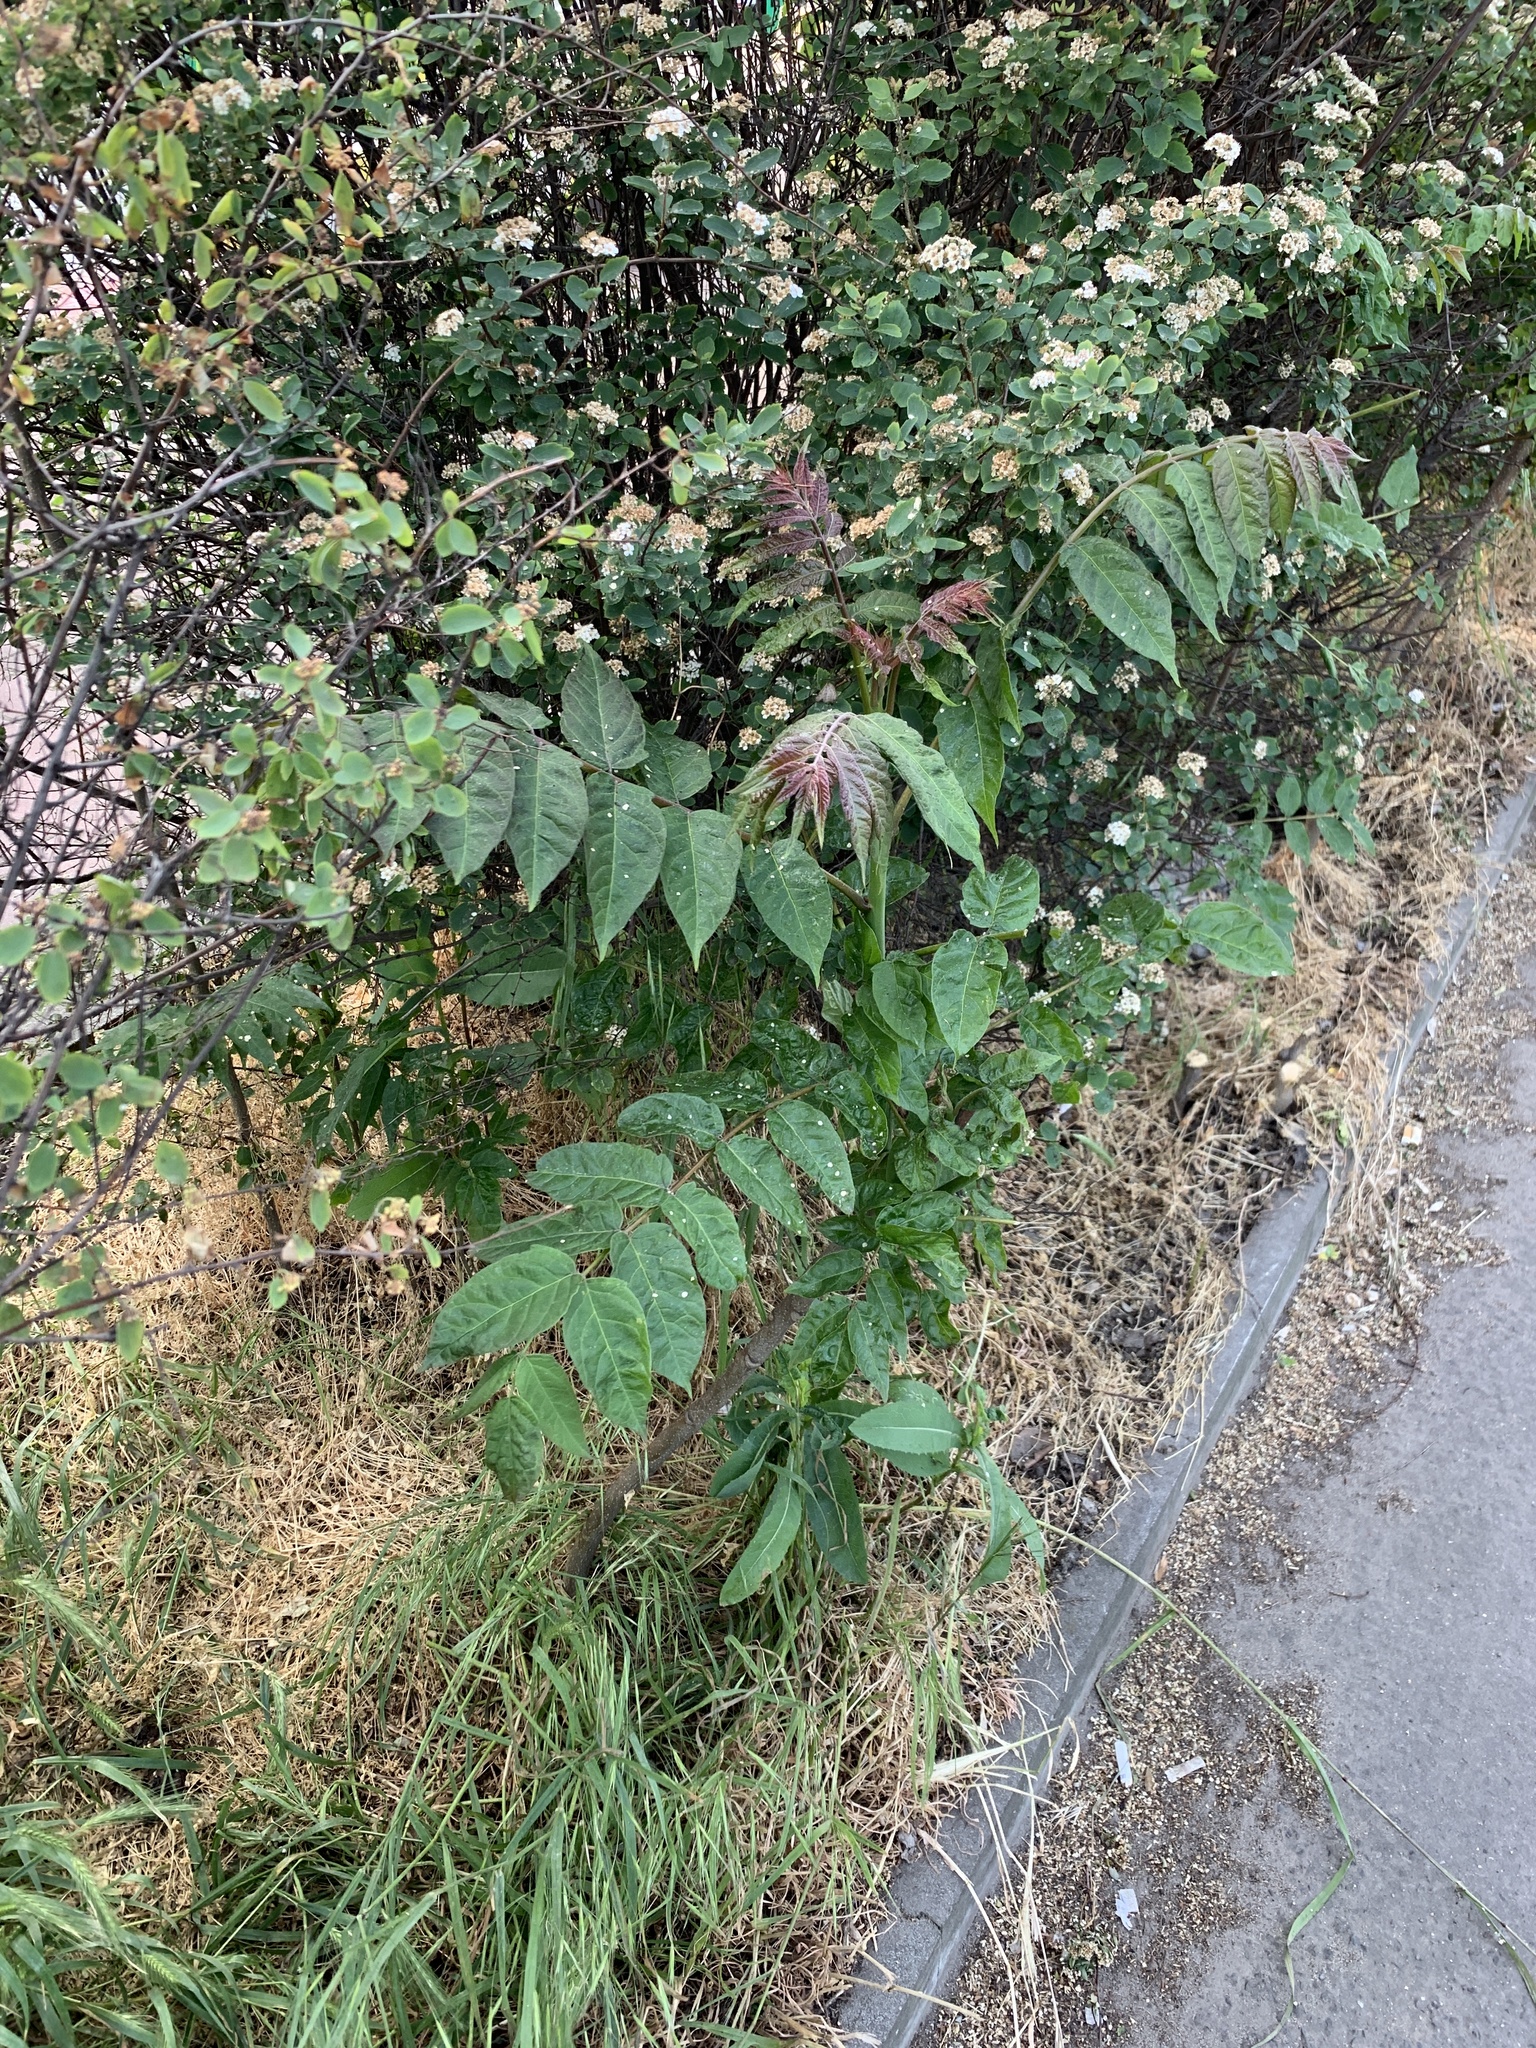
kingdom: Plantae
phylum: Tracheophyta
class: Magnoliopsida
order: Sapindales
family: Simaroubaceae
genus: Ailanthus
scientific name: Ailanthus altissima
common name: Tree-of-heaven
